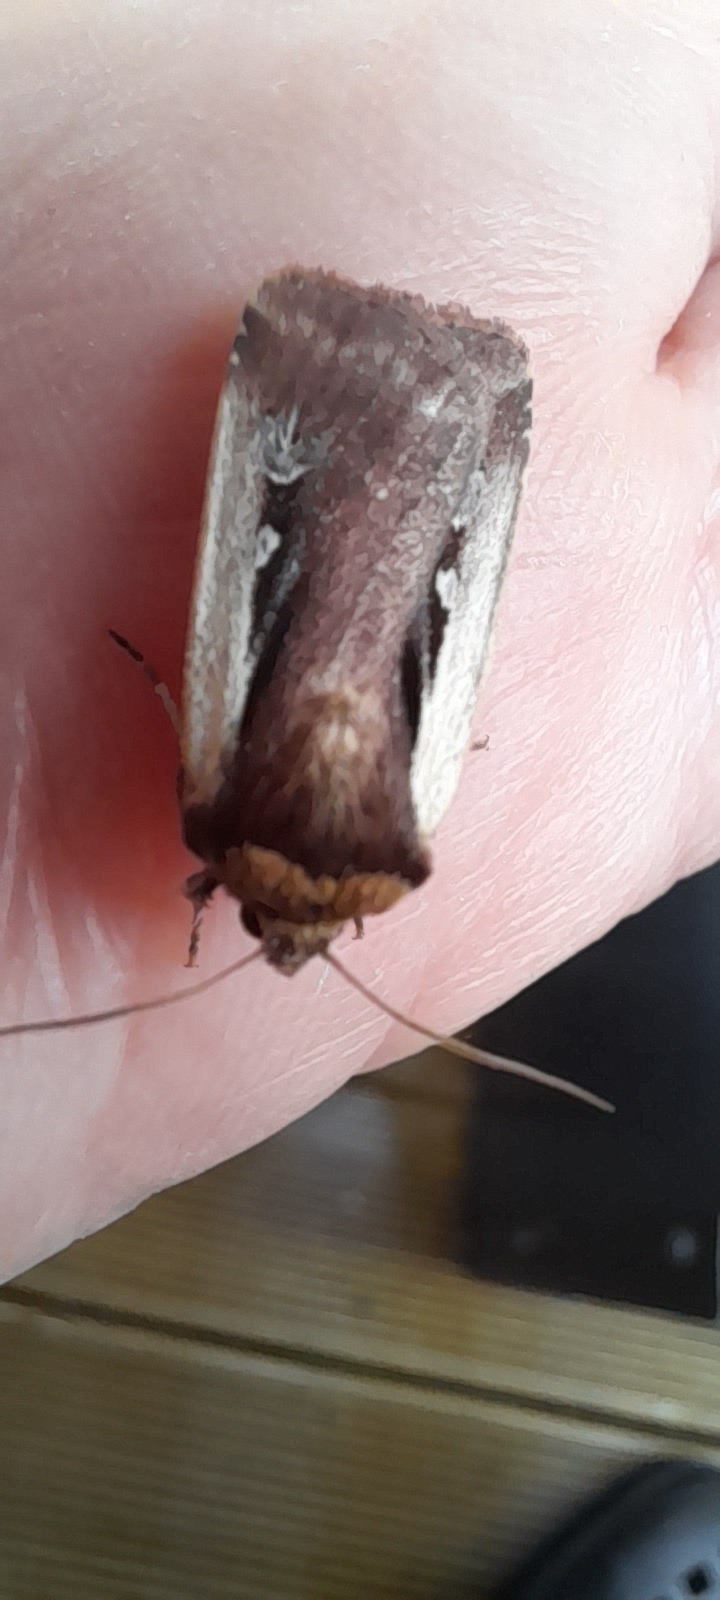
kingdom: Animalia
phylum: Arthropoda
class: Insecta
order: Lepidoptera
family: Noctuidae
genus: Ochropleura
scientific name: Ochropleura plecta
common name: Flame shoulder
